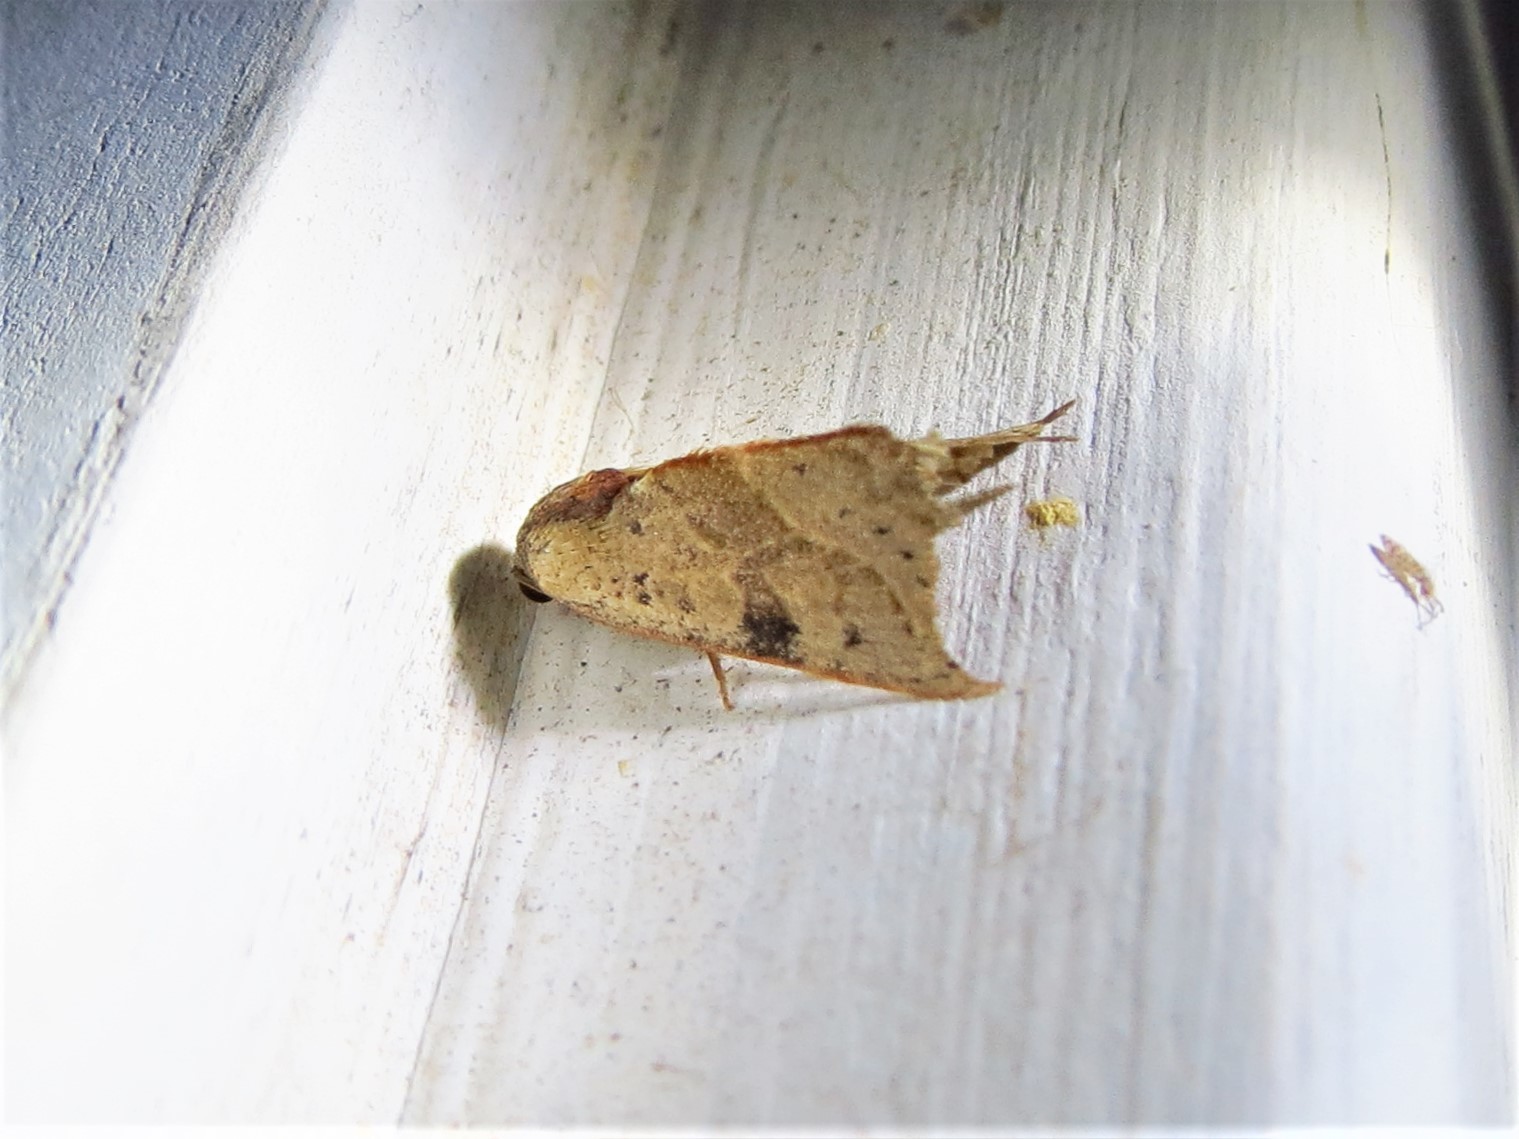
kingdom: Animalia
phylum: Arthropoda
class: Insecta
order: Lepidoptera
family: Noctuidae
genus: Galgula
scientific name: Galgula partita
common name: Wedgeling
